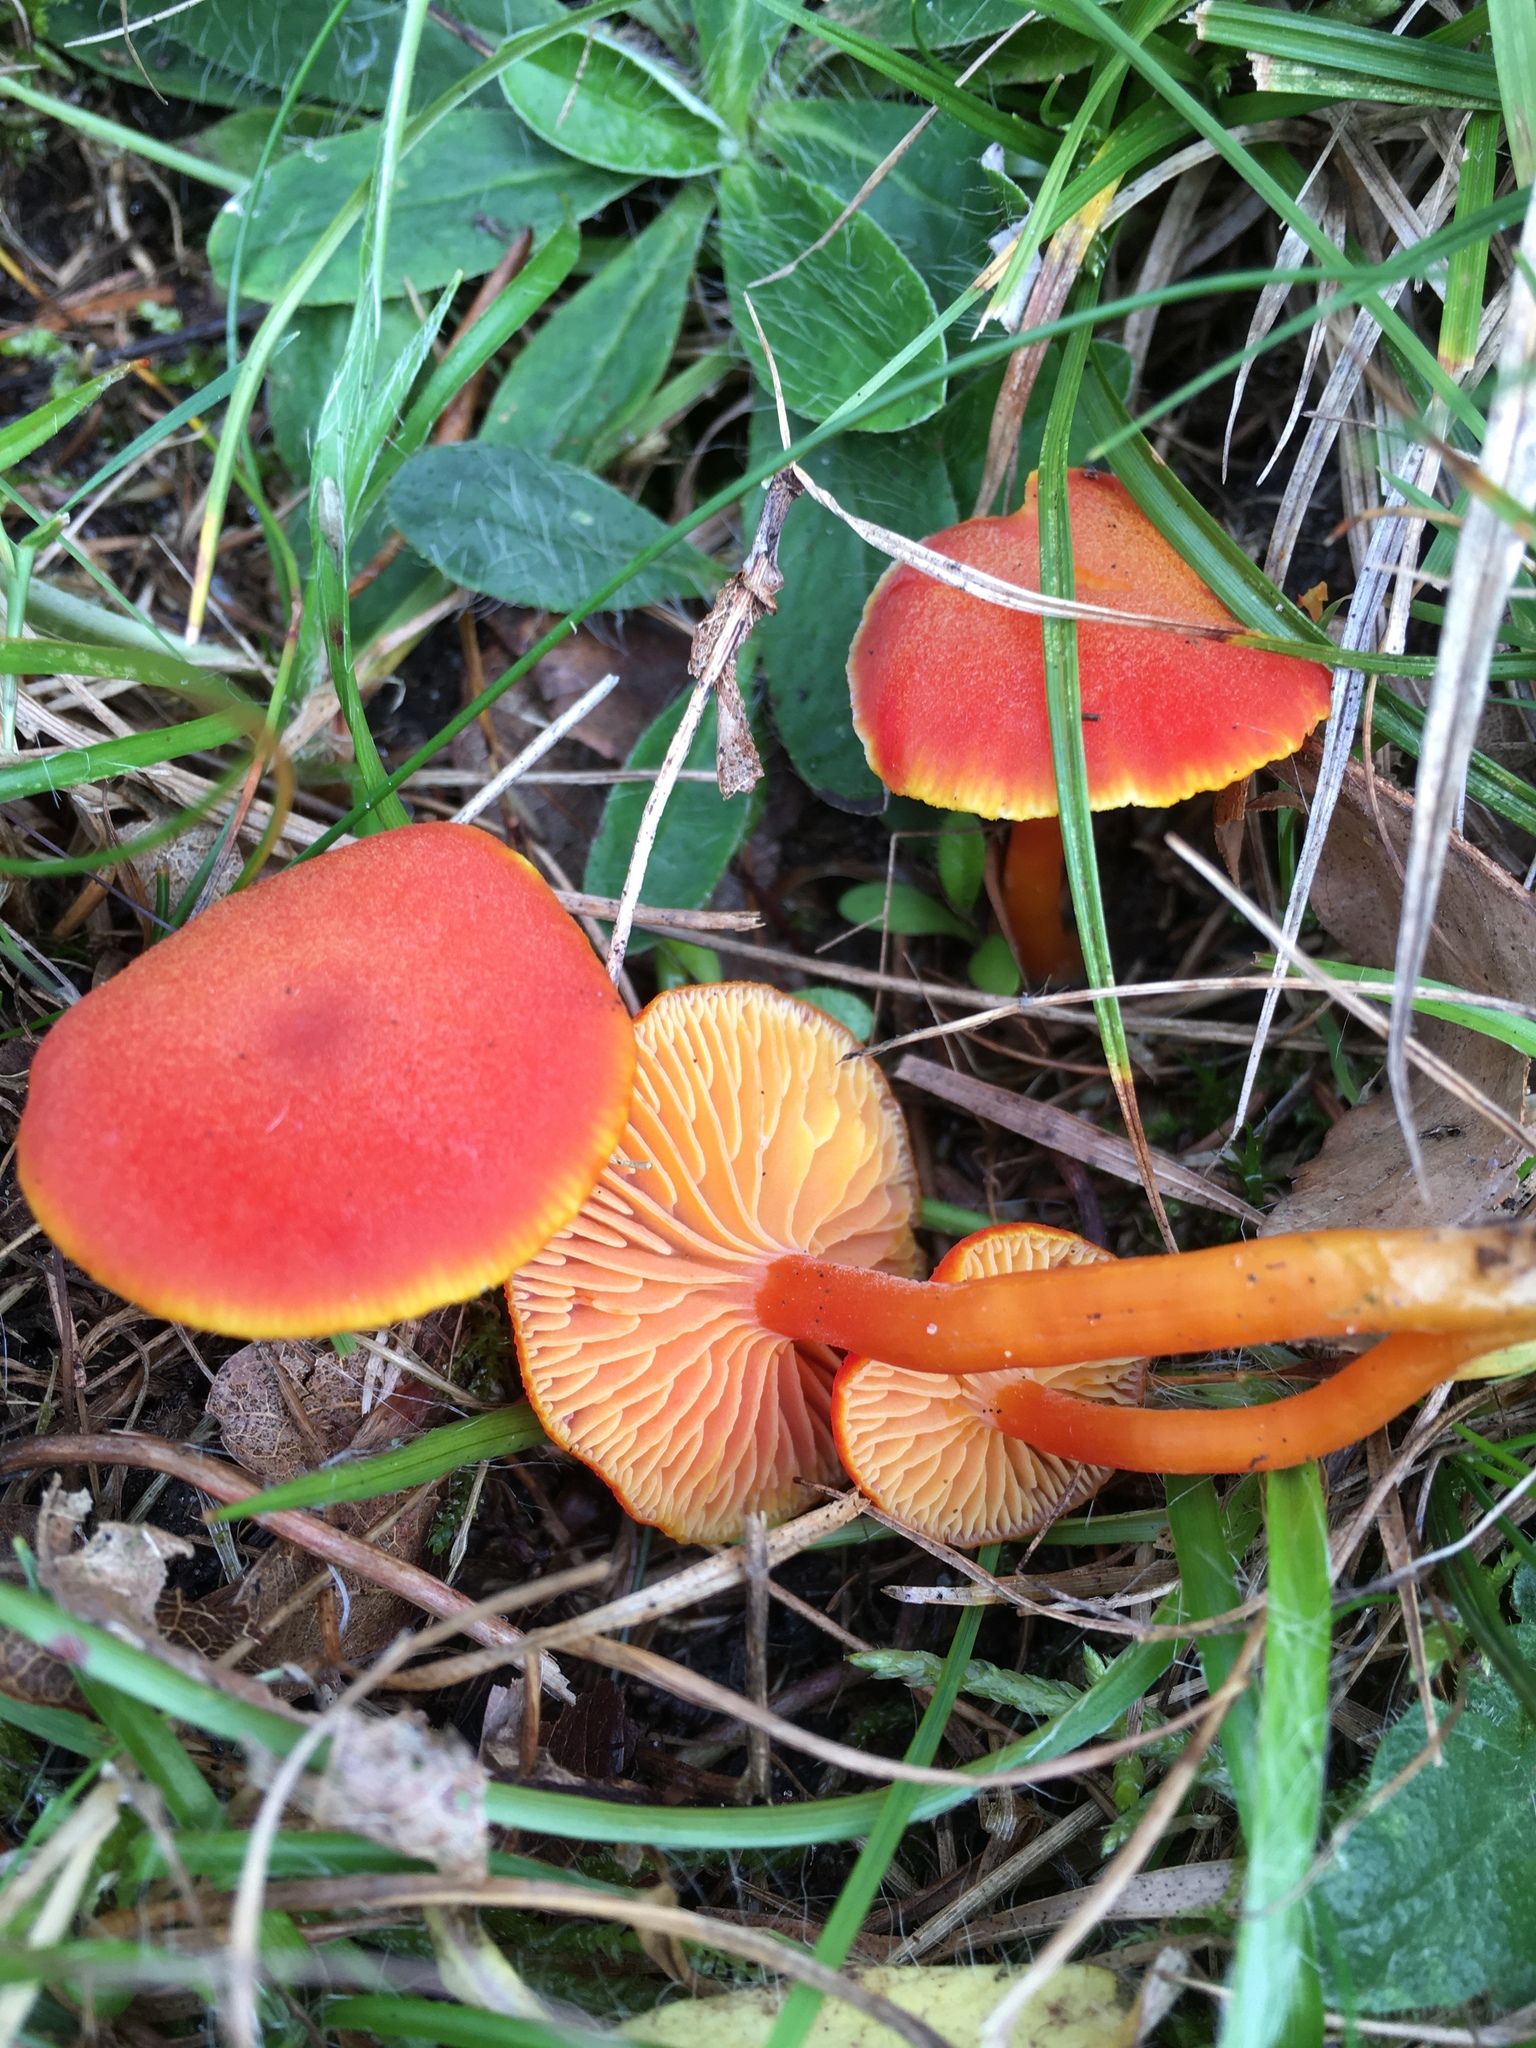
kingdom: Fungi
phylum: Basidiomycota
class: Agaricomycetes
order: Agaricales
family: Hygrophoraceae
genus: Hygrocybe
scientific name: Hygrocybe coccinea
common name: Scarlet hood
